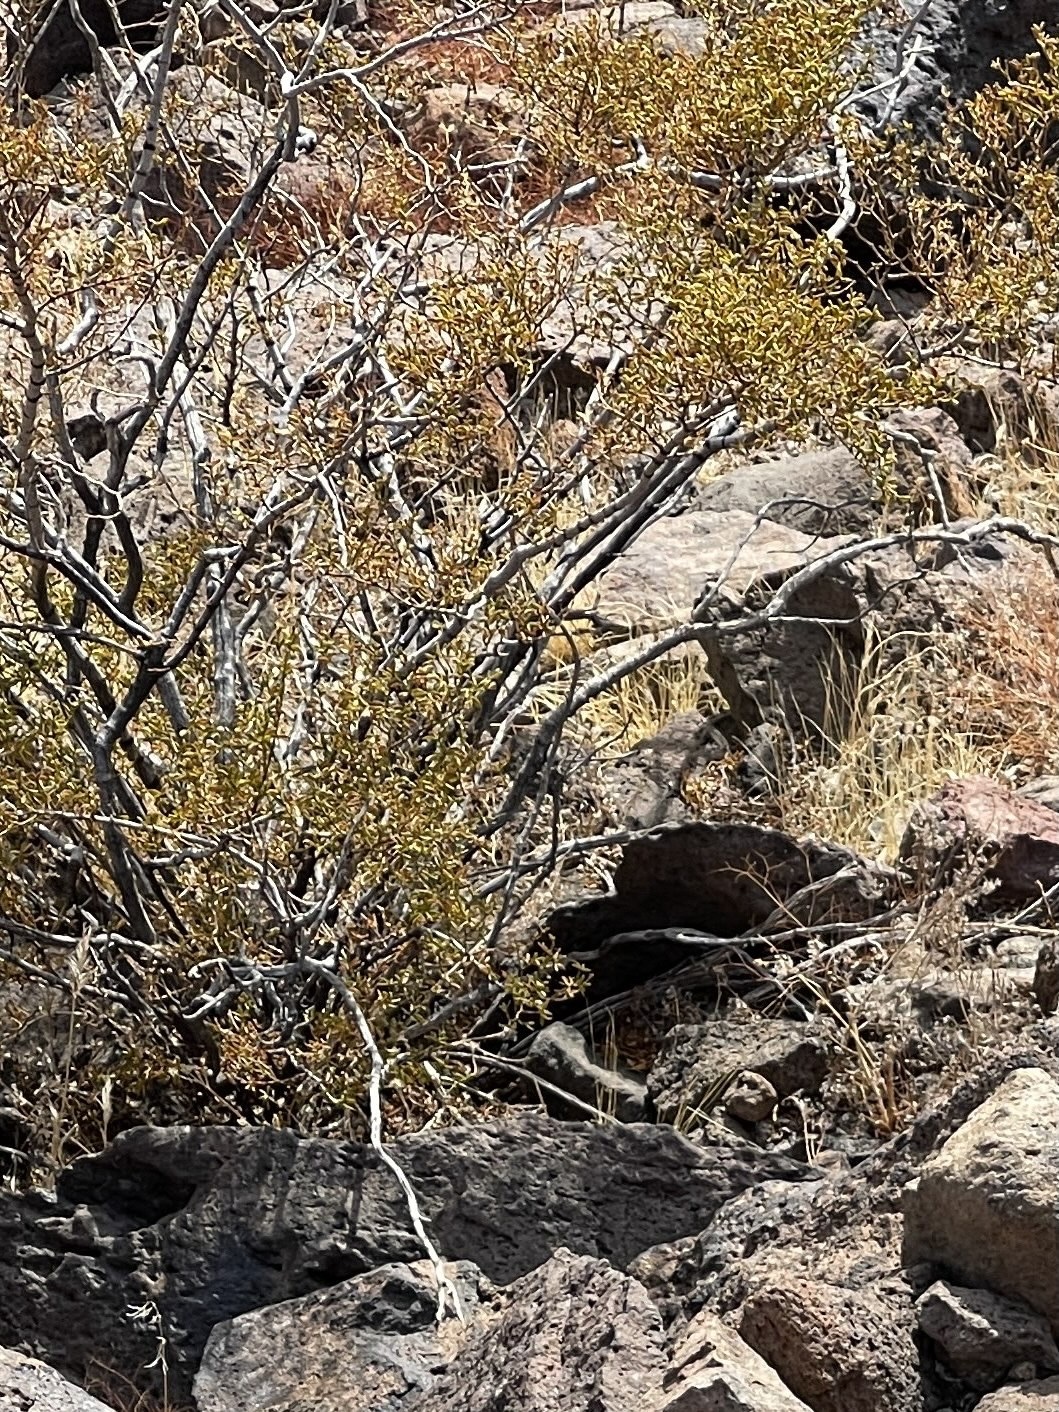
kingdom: Plantae
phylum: Tracheophyta
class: Magnoliopsida
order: Zygophyllales
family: Zygophyllaceae
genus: Larrea
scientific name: Larrea tridentata
